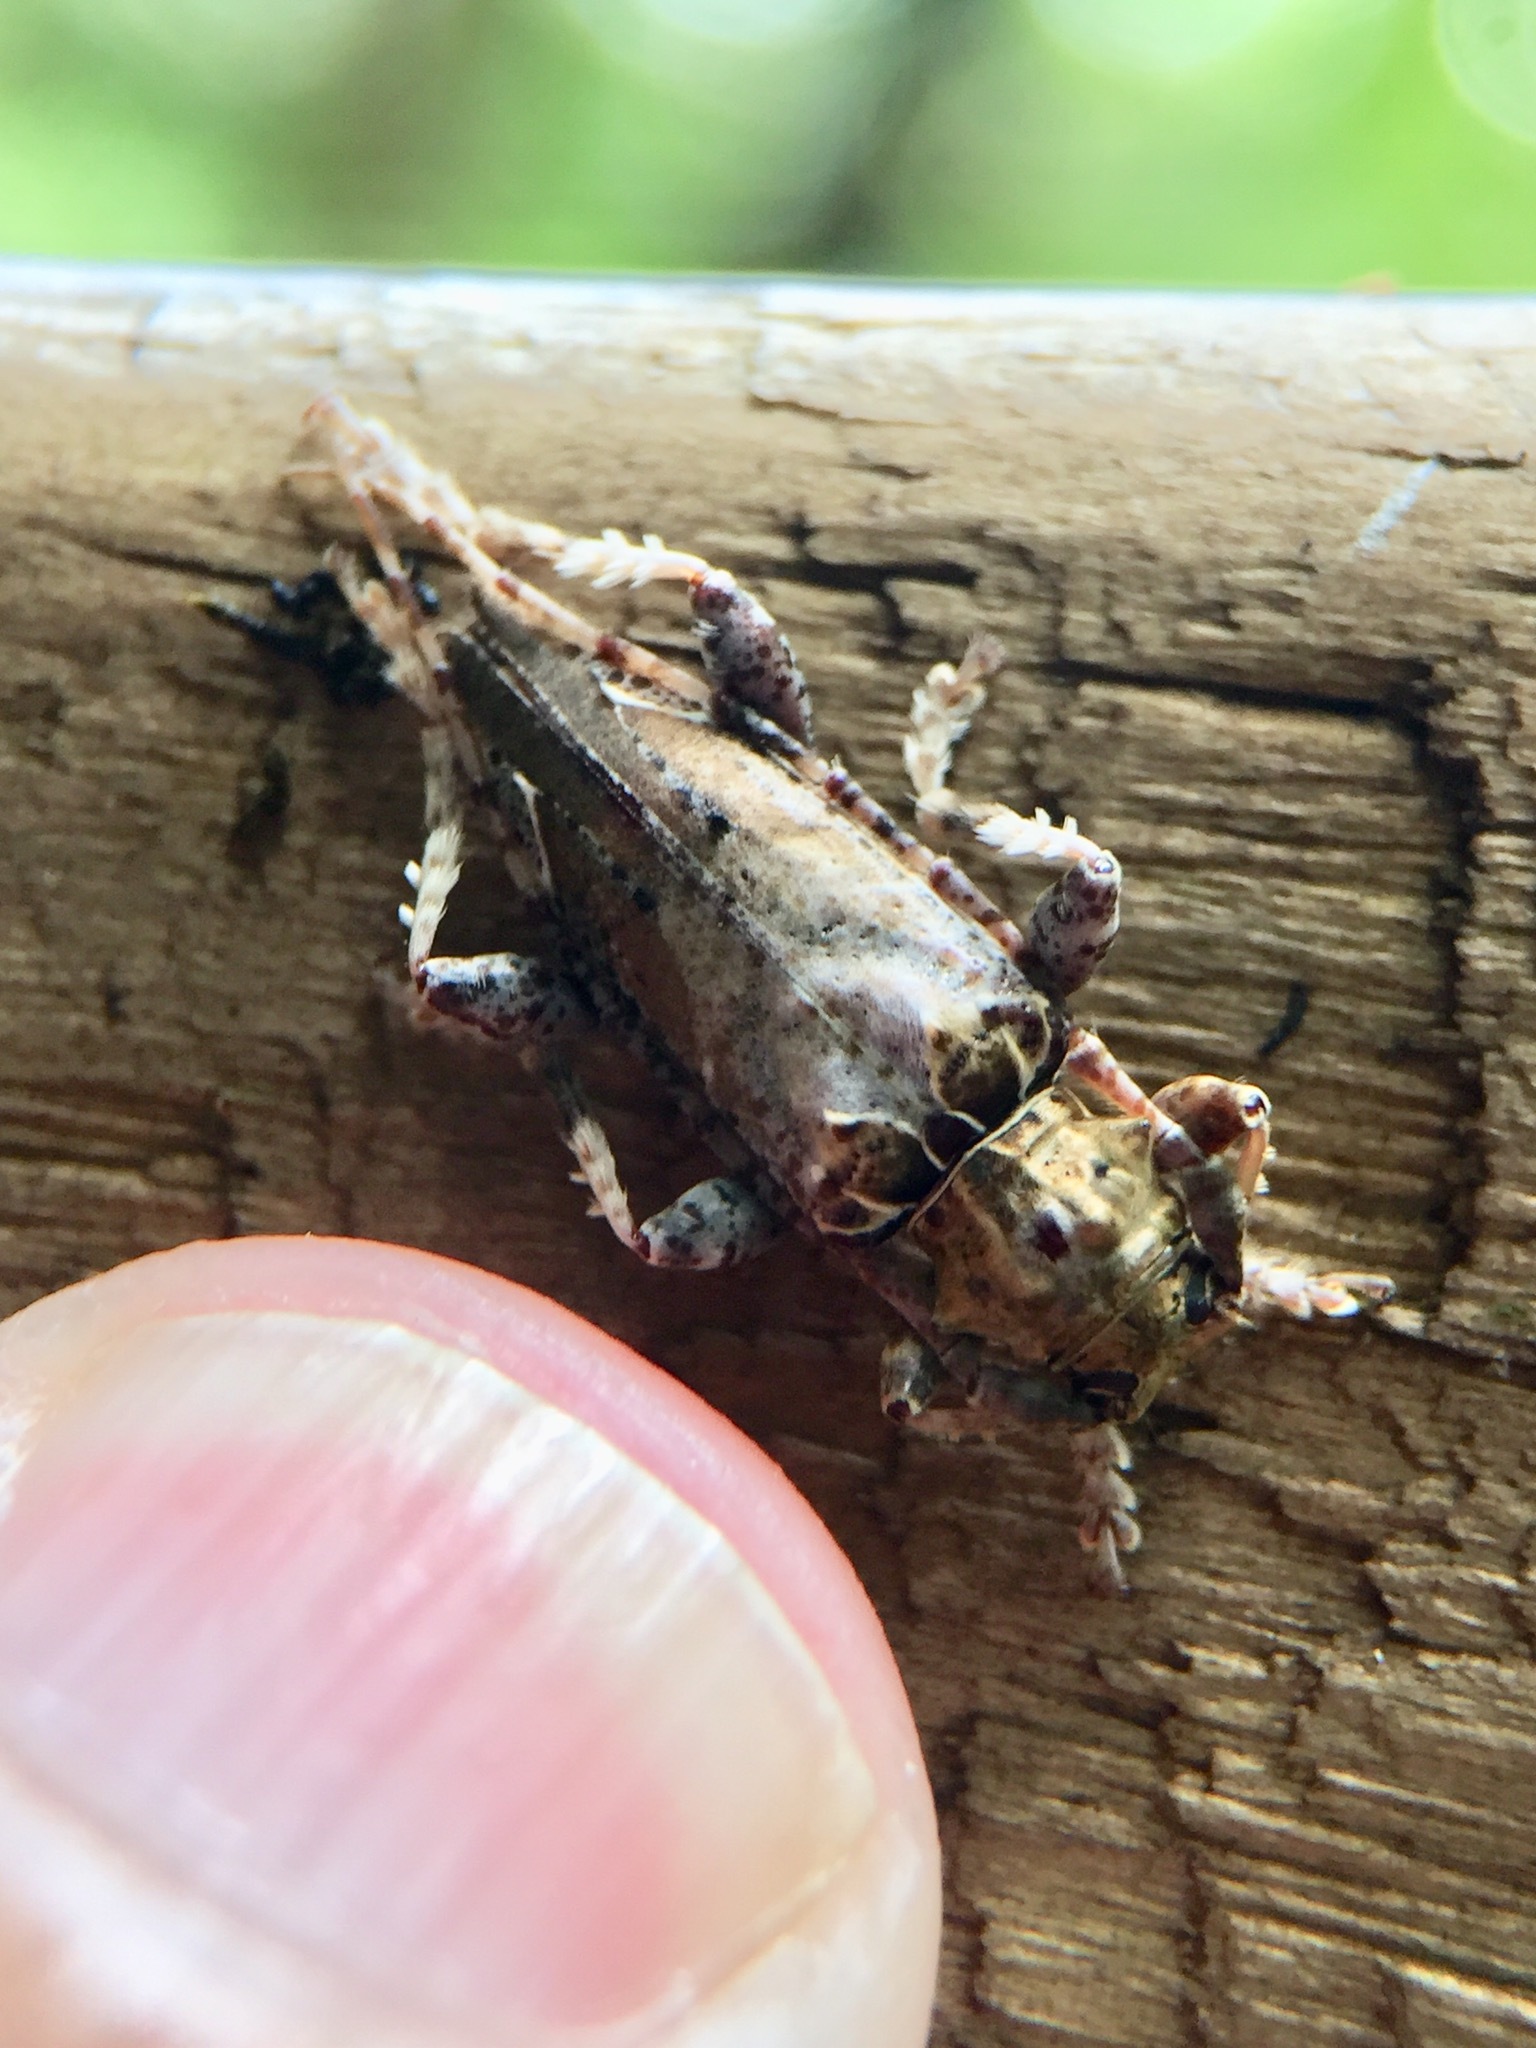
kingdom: Animalia
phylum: Arthropoda
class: Insecta
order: Coleoptera
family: Cerambycidae
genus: Tetrorea
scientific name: Tetrorea cilipes
